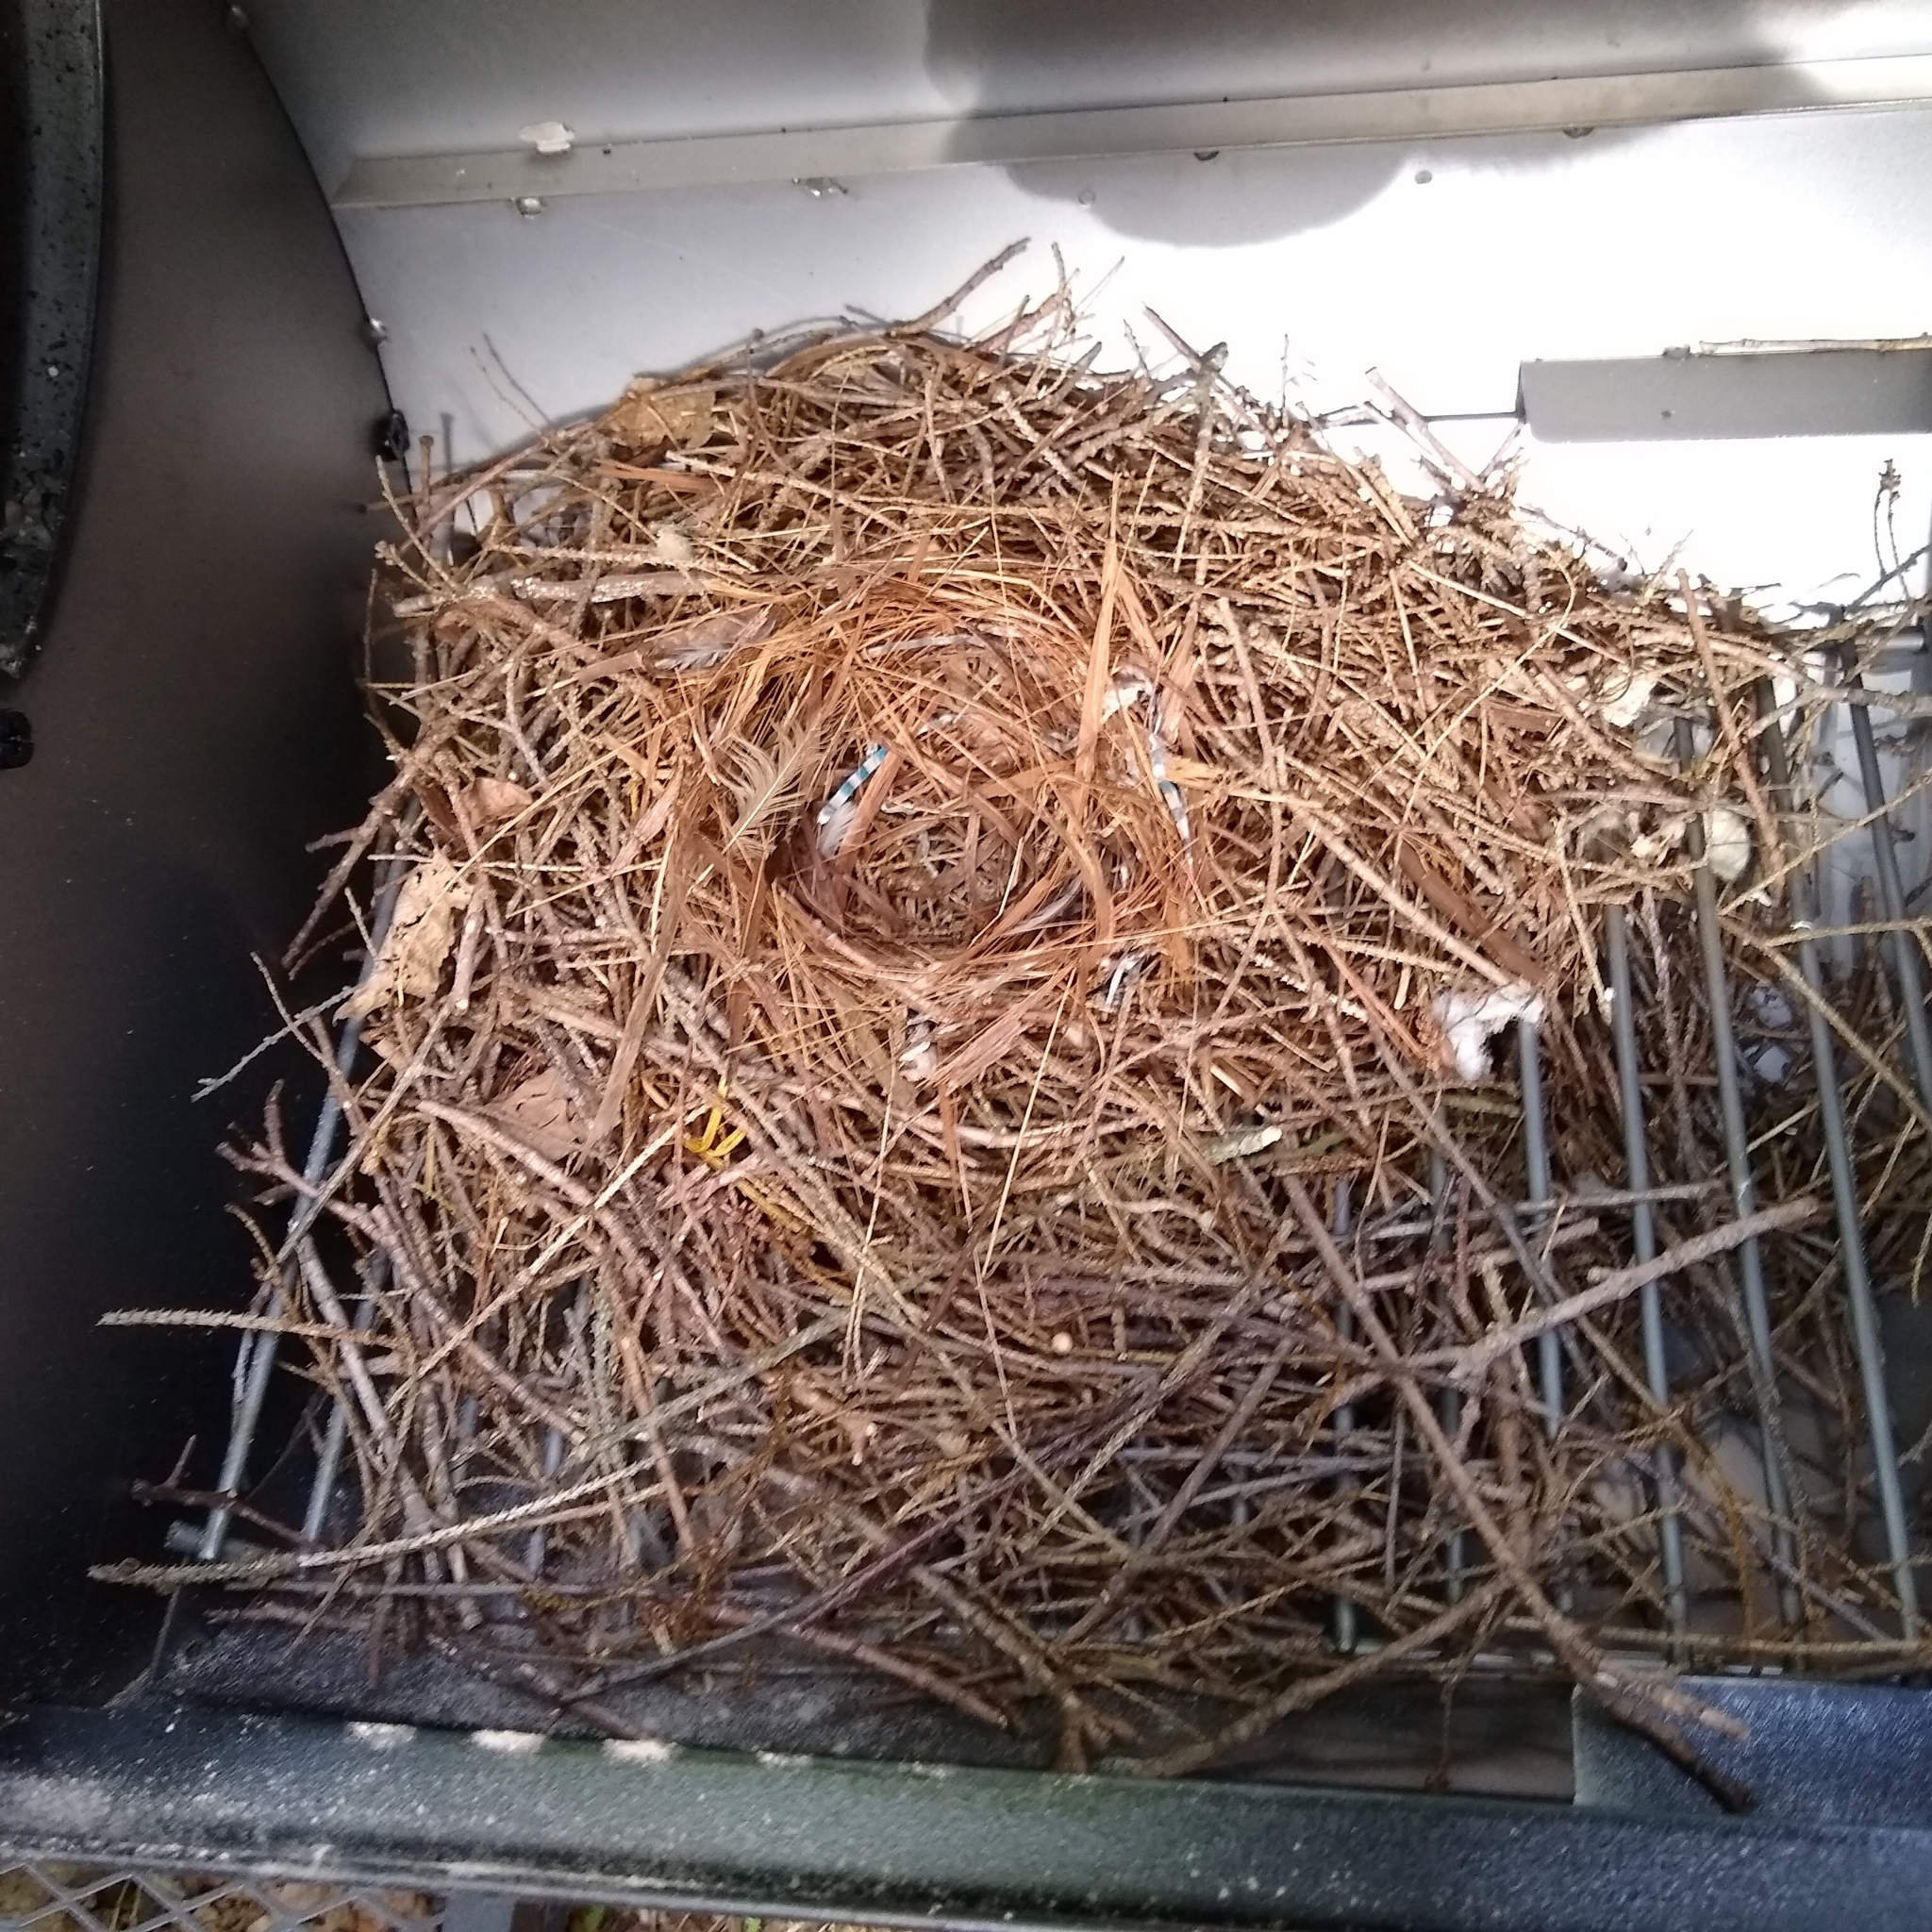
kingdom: Animalia
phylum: Chordata
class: Aves
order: Passeriformes
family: Troglodytidae
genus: Troglodytes
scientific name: Troglodytes aedon
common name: House wren
